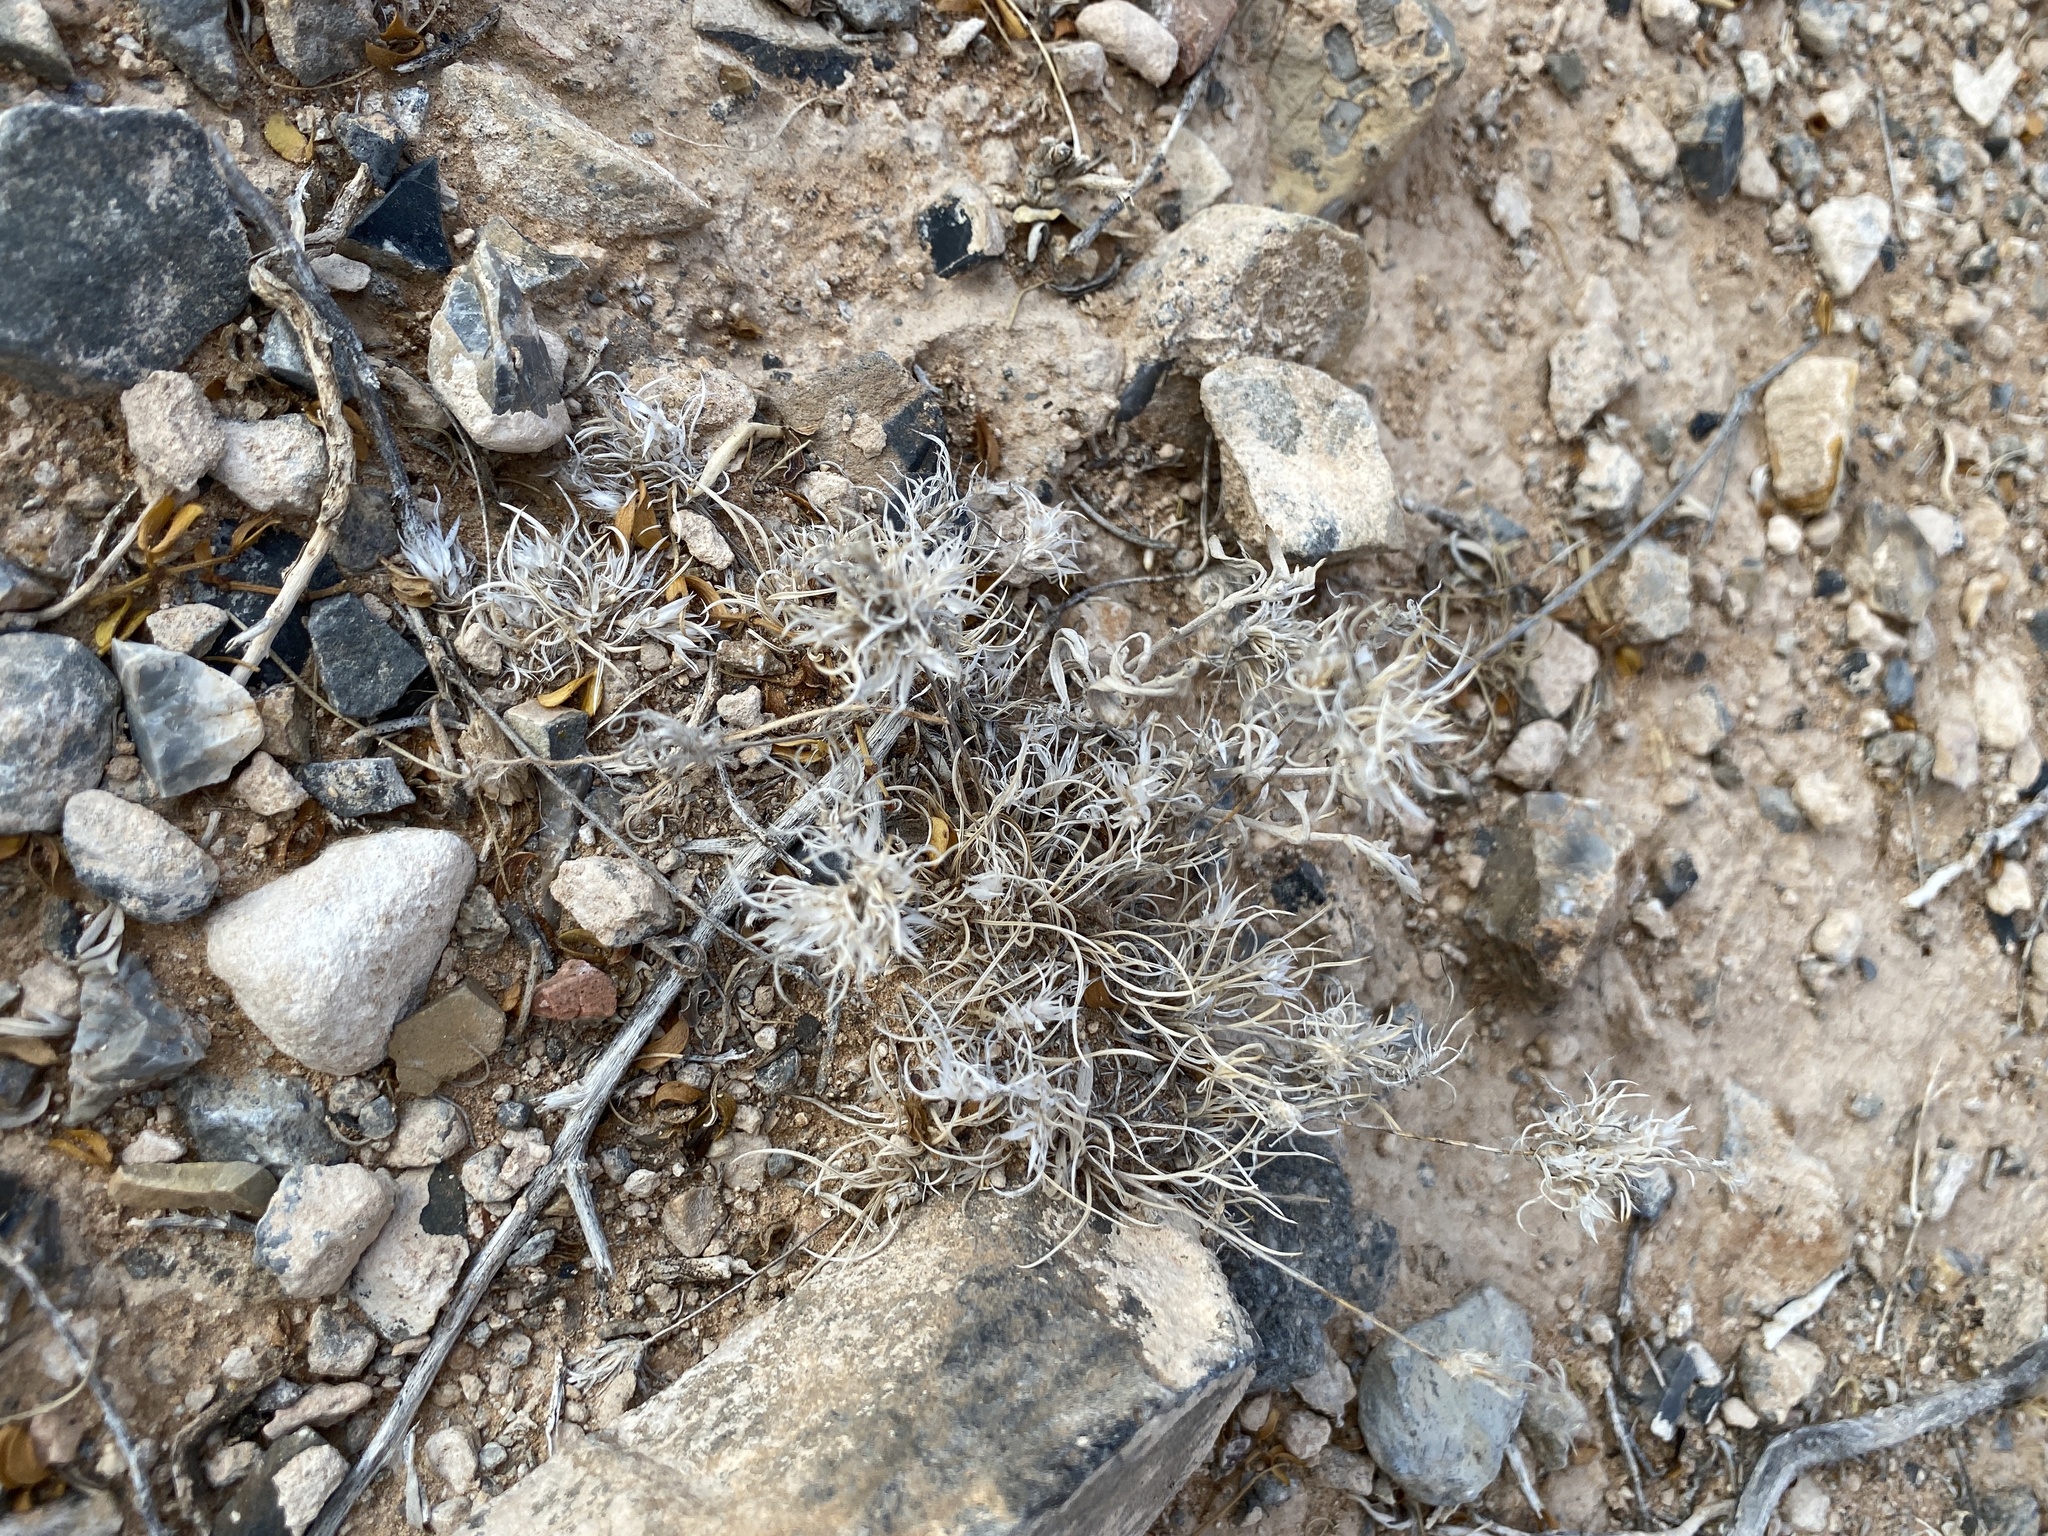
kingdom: Plantae
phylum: Tracheophyta
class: Liliopsida
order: Poales
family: Poaceae
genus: Dasyochloa
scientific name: Dasyochloa pulchella
